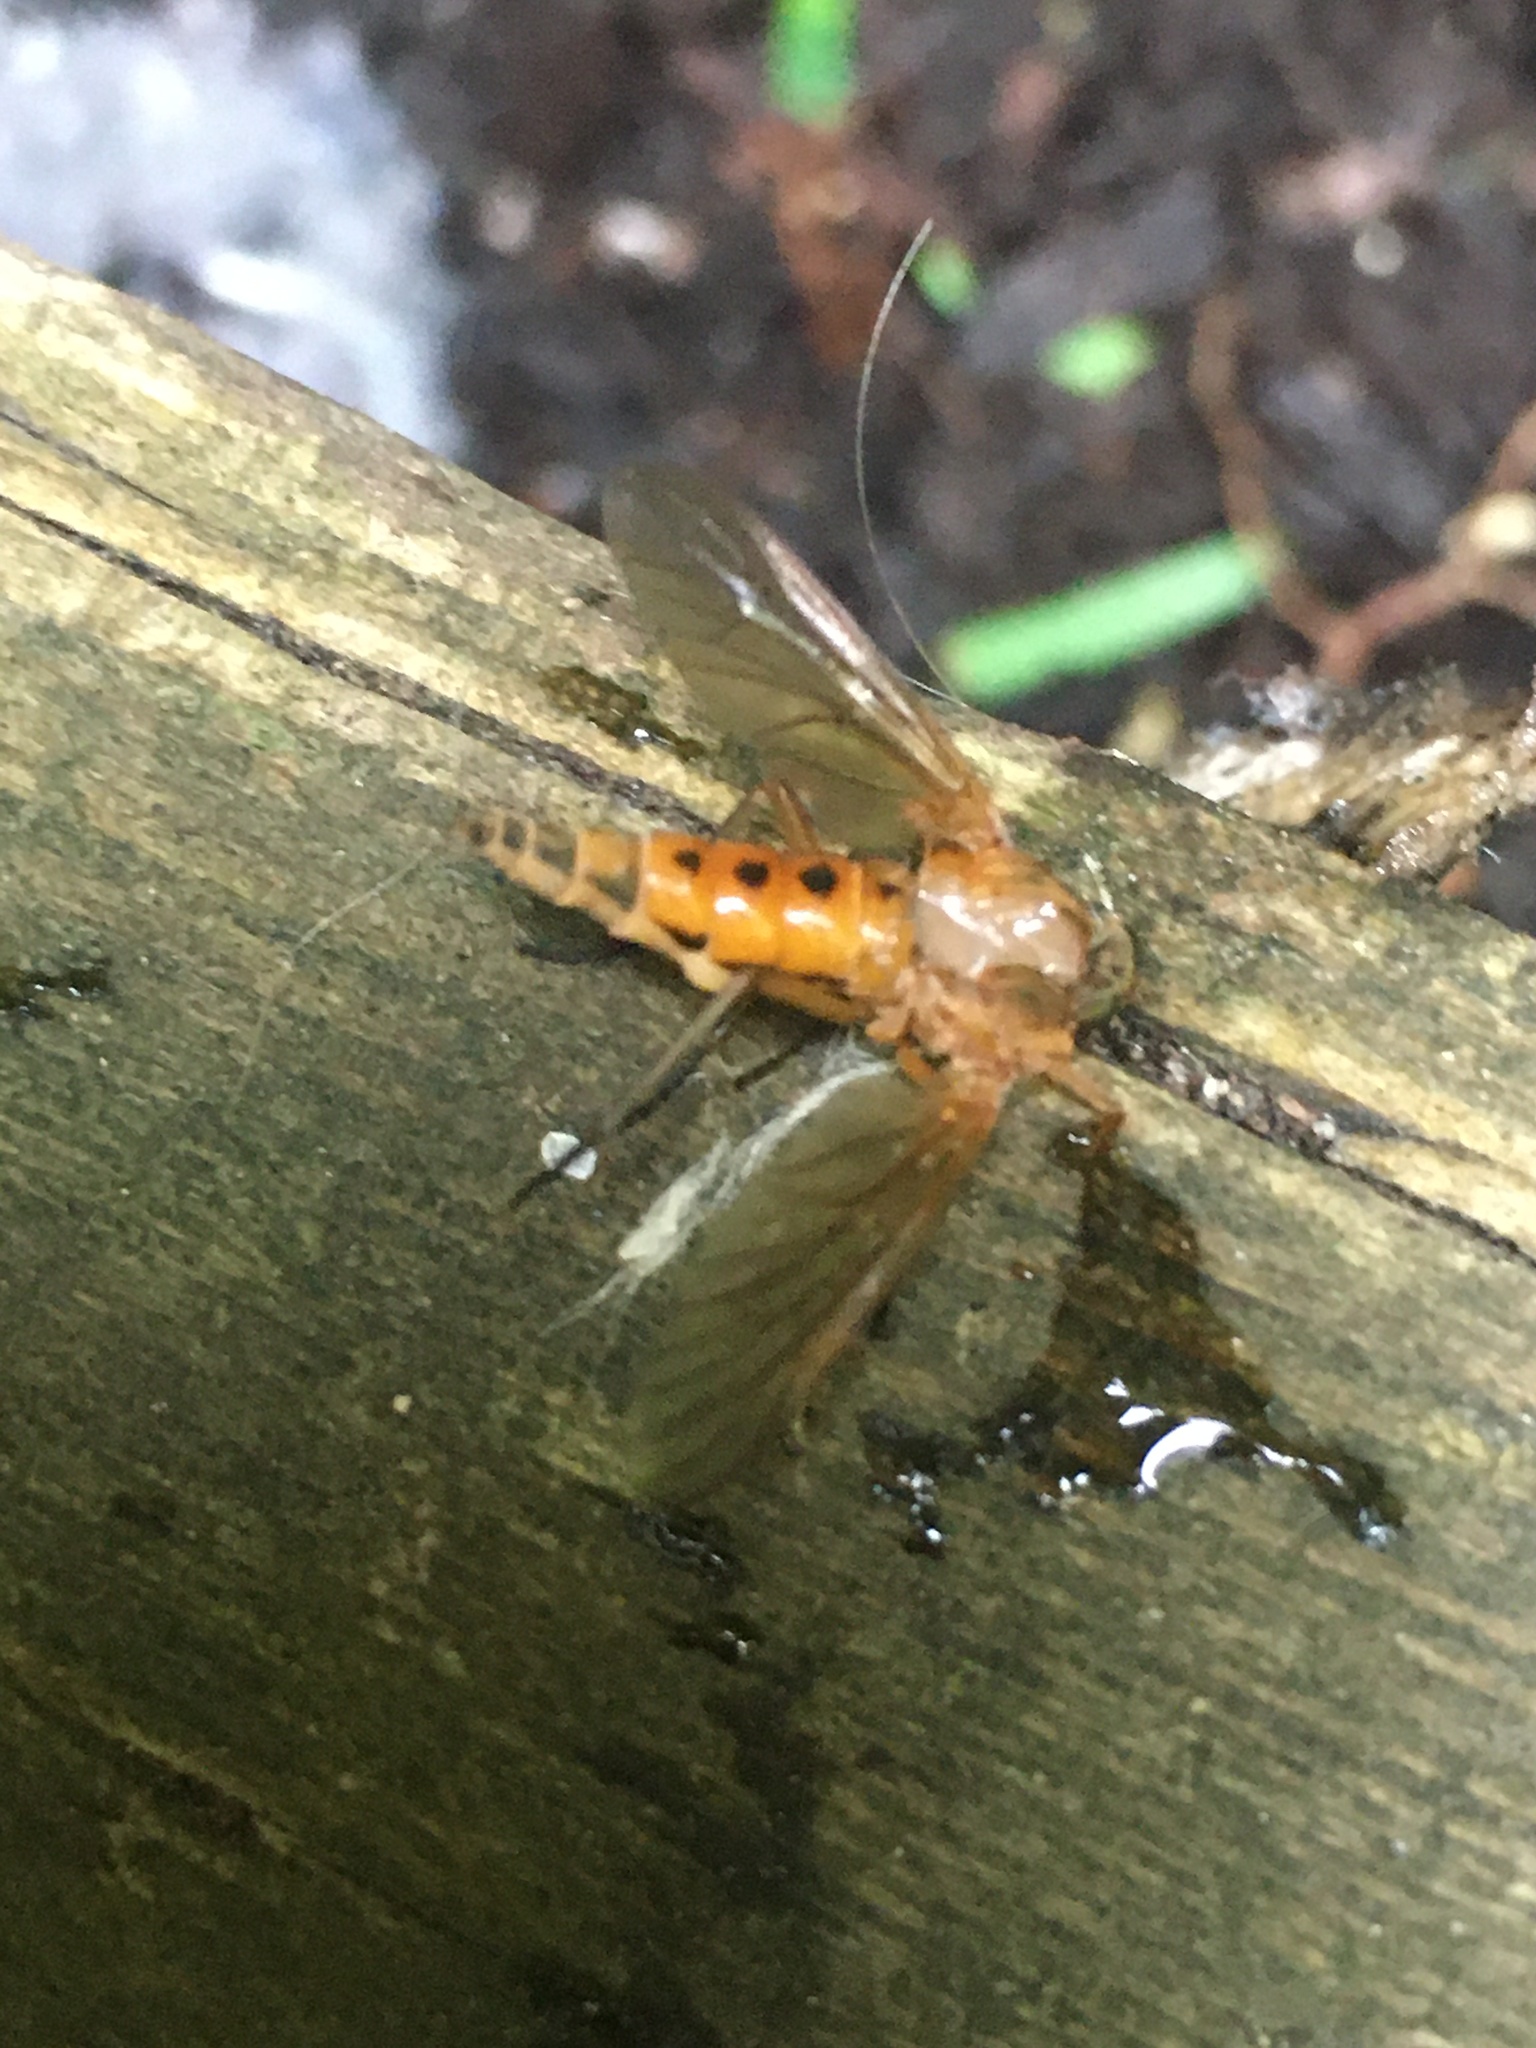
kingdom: Animalia
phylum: Arthropoda
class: Insecta
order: Diptera
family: Rhagionidae
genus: Rhagio
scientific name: Rhagio tringaria
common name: Marsh snipefly
